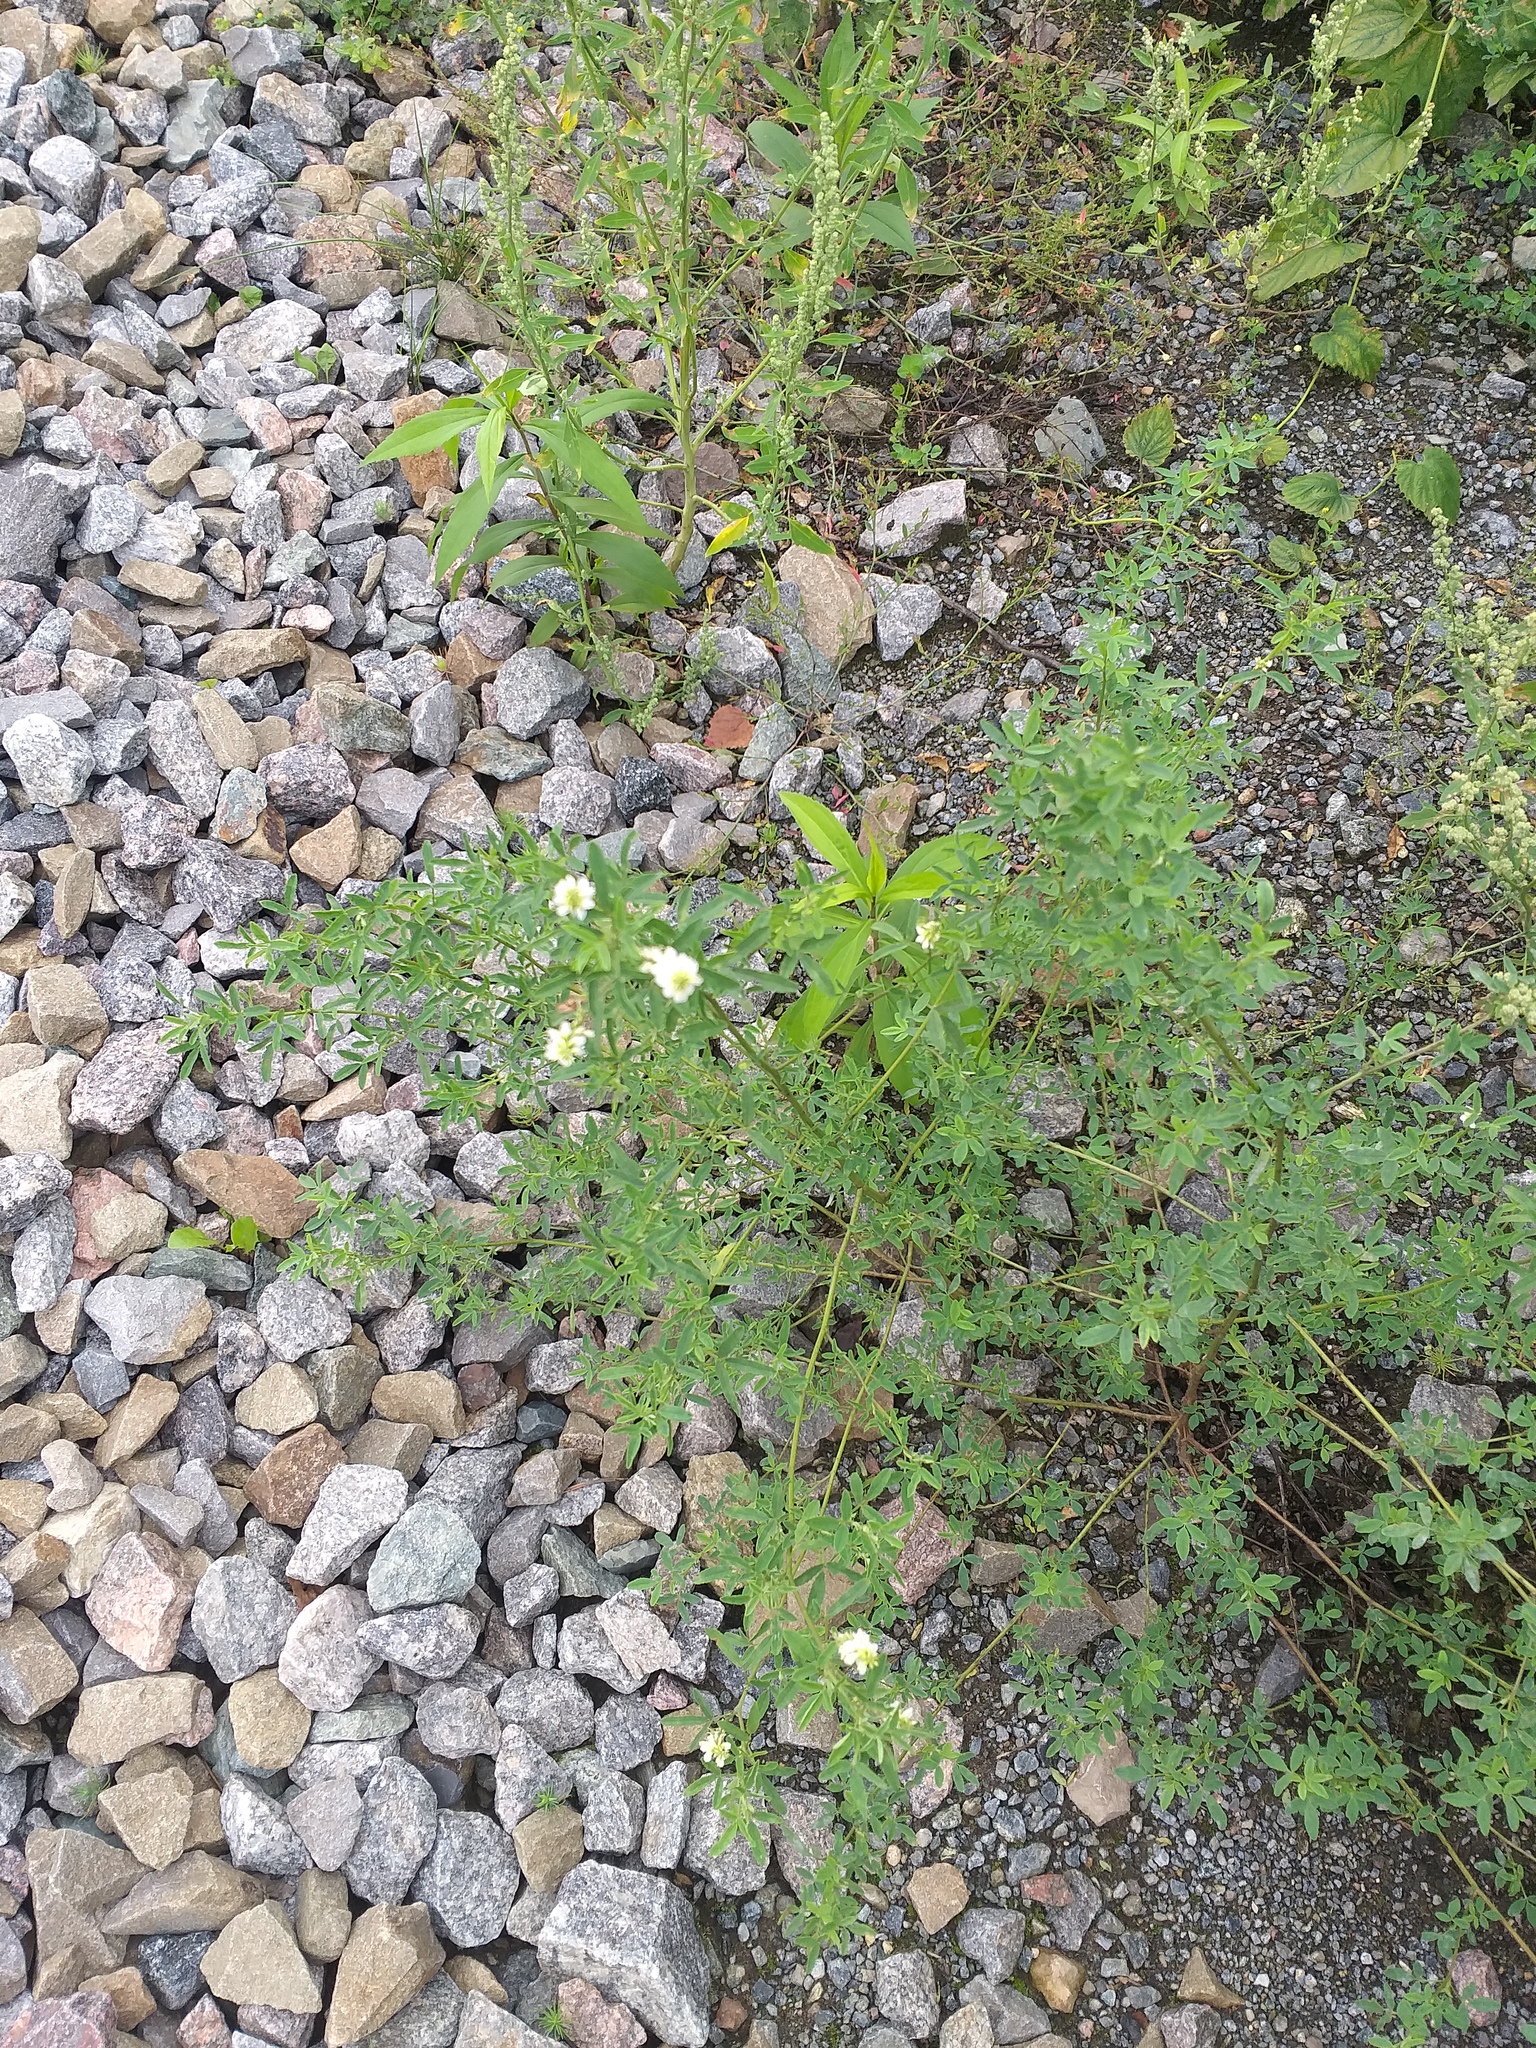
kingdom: Plantae
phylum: Tracheophyta
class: Magnoliopsida
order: Fabales
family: Fabaceae
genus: Melilotus
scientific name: Melilotus albus
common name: White melilot
